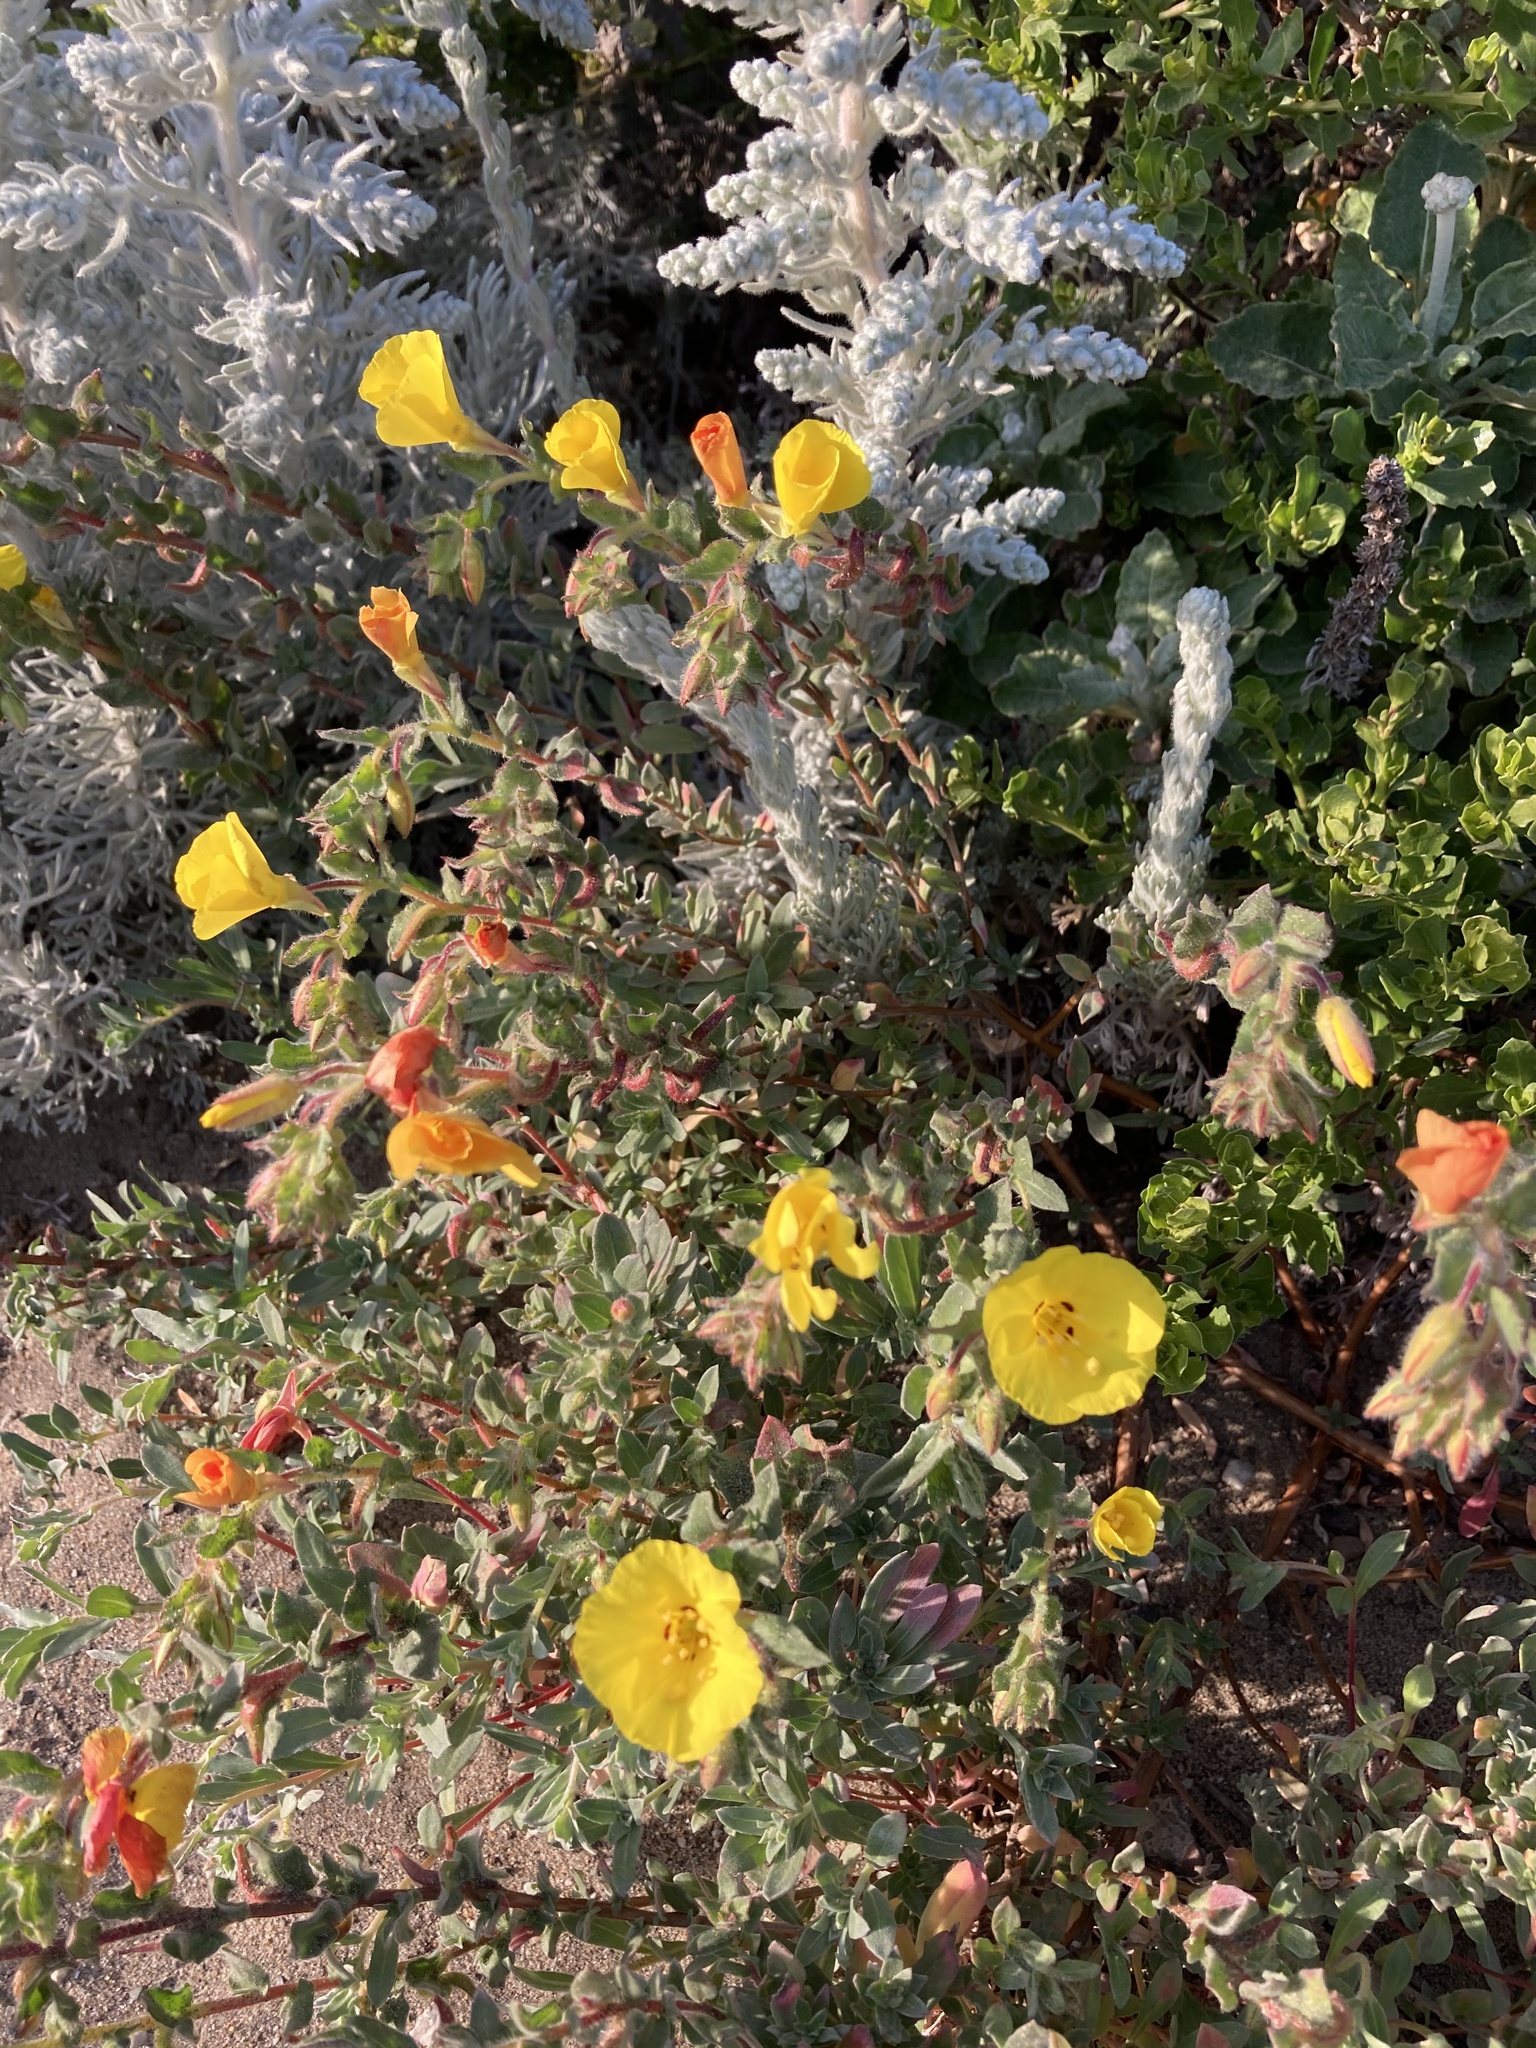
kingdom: Plantae
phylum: Tracheophyta
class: Magnoliopsida
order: Myrtales
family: Onagraceae
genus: Camissoniopsis
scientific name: Camissoniopsis cheiranthifolia
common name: Beach suncup
